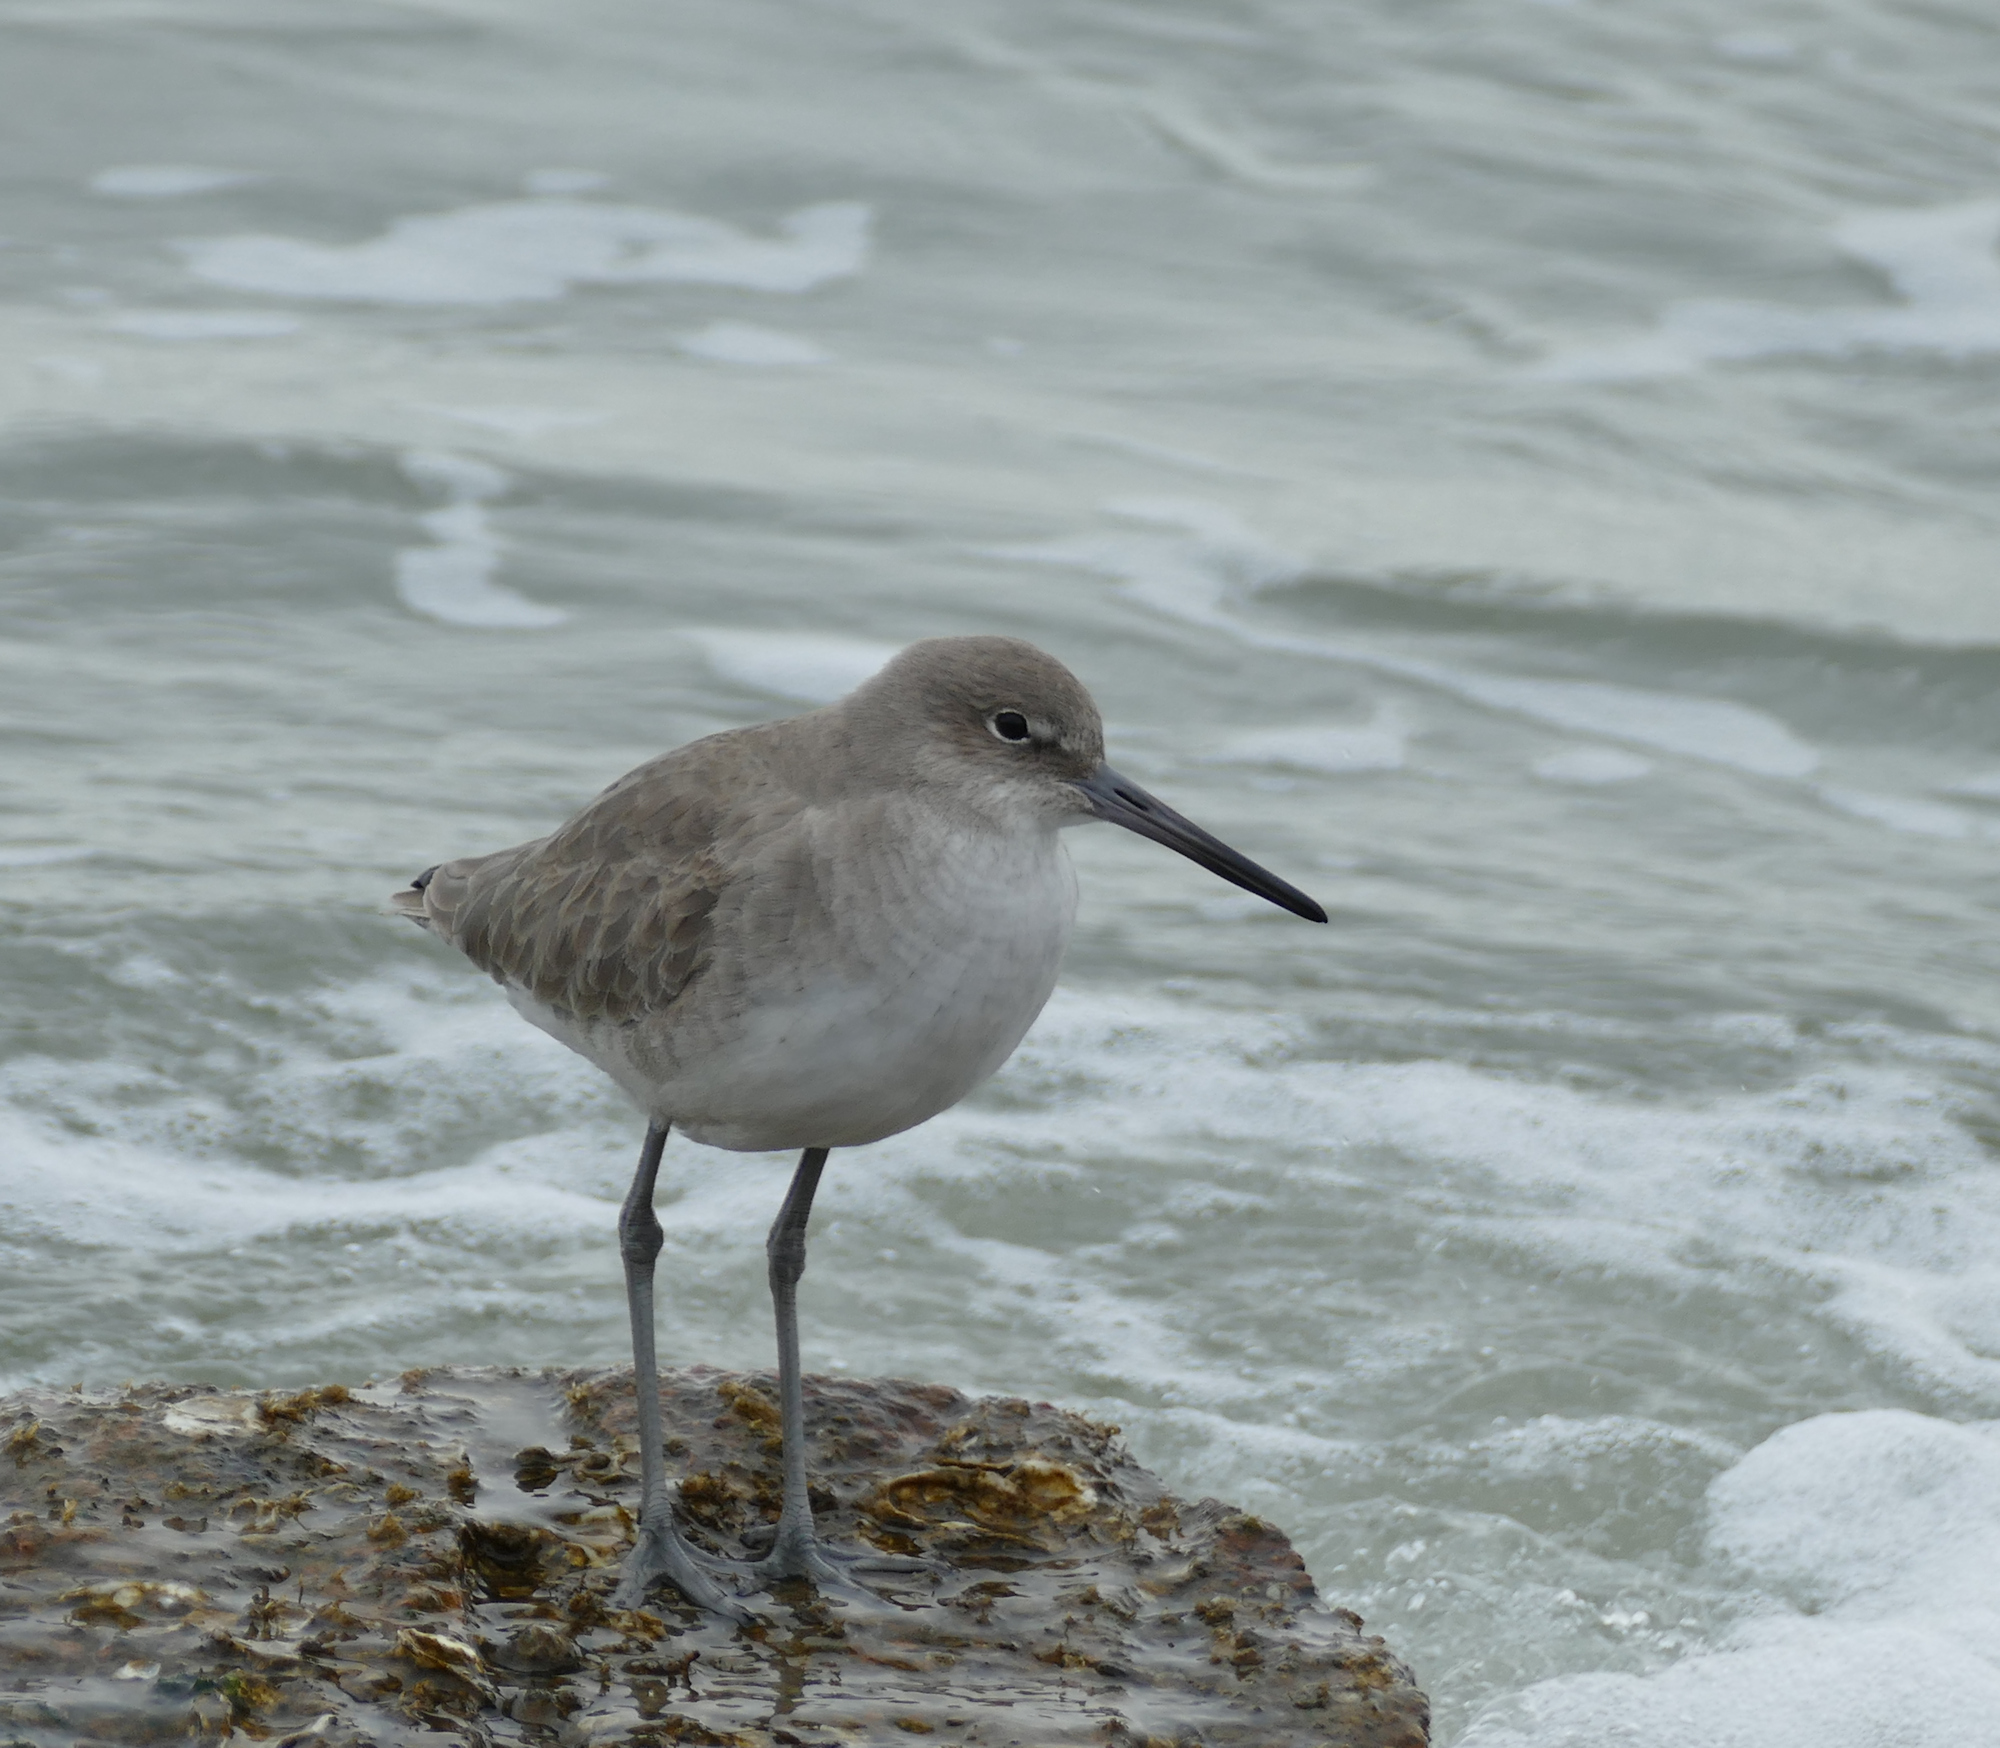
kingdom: Animalia
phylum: Chordata
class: Aves
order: Charadriiformes
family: Scolopacidae
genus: Tringa
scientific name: Tringa semipalmata
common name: Willet
